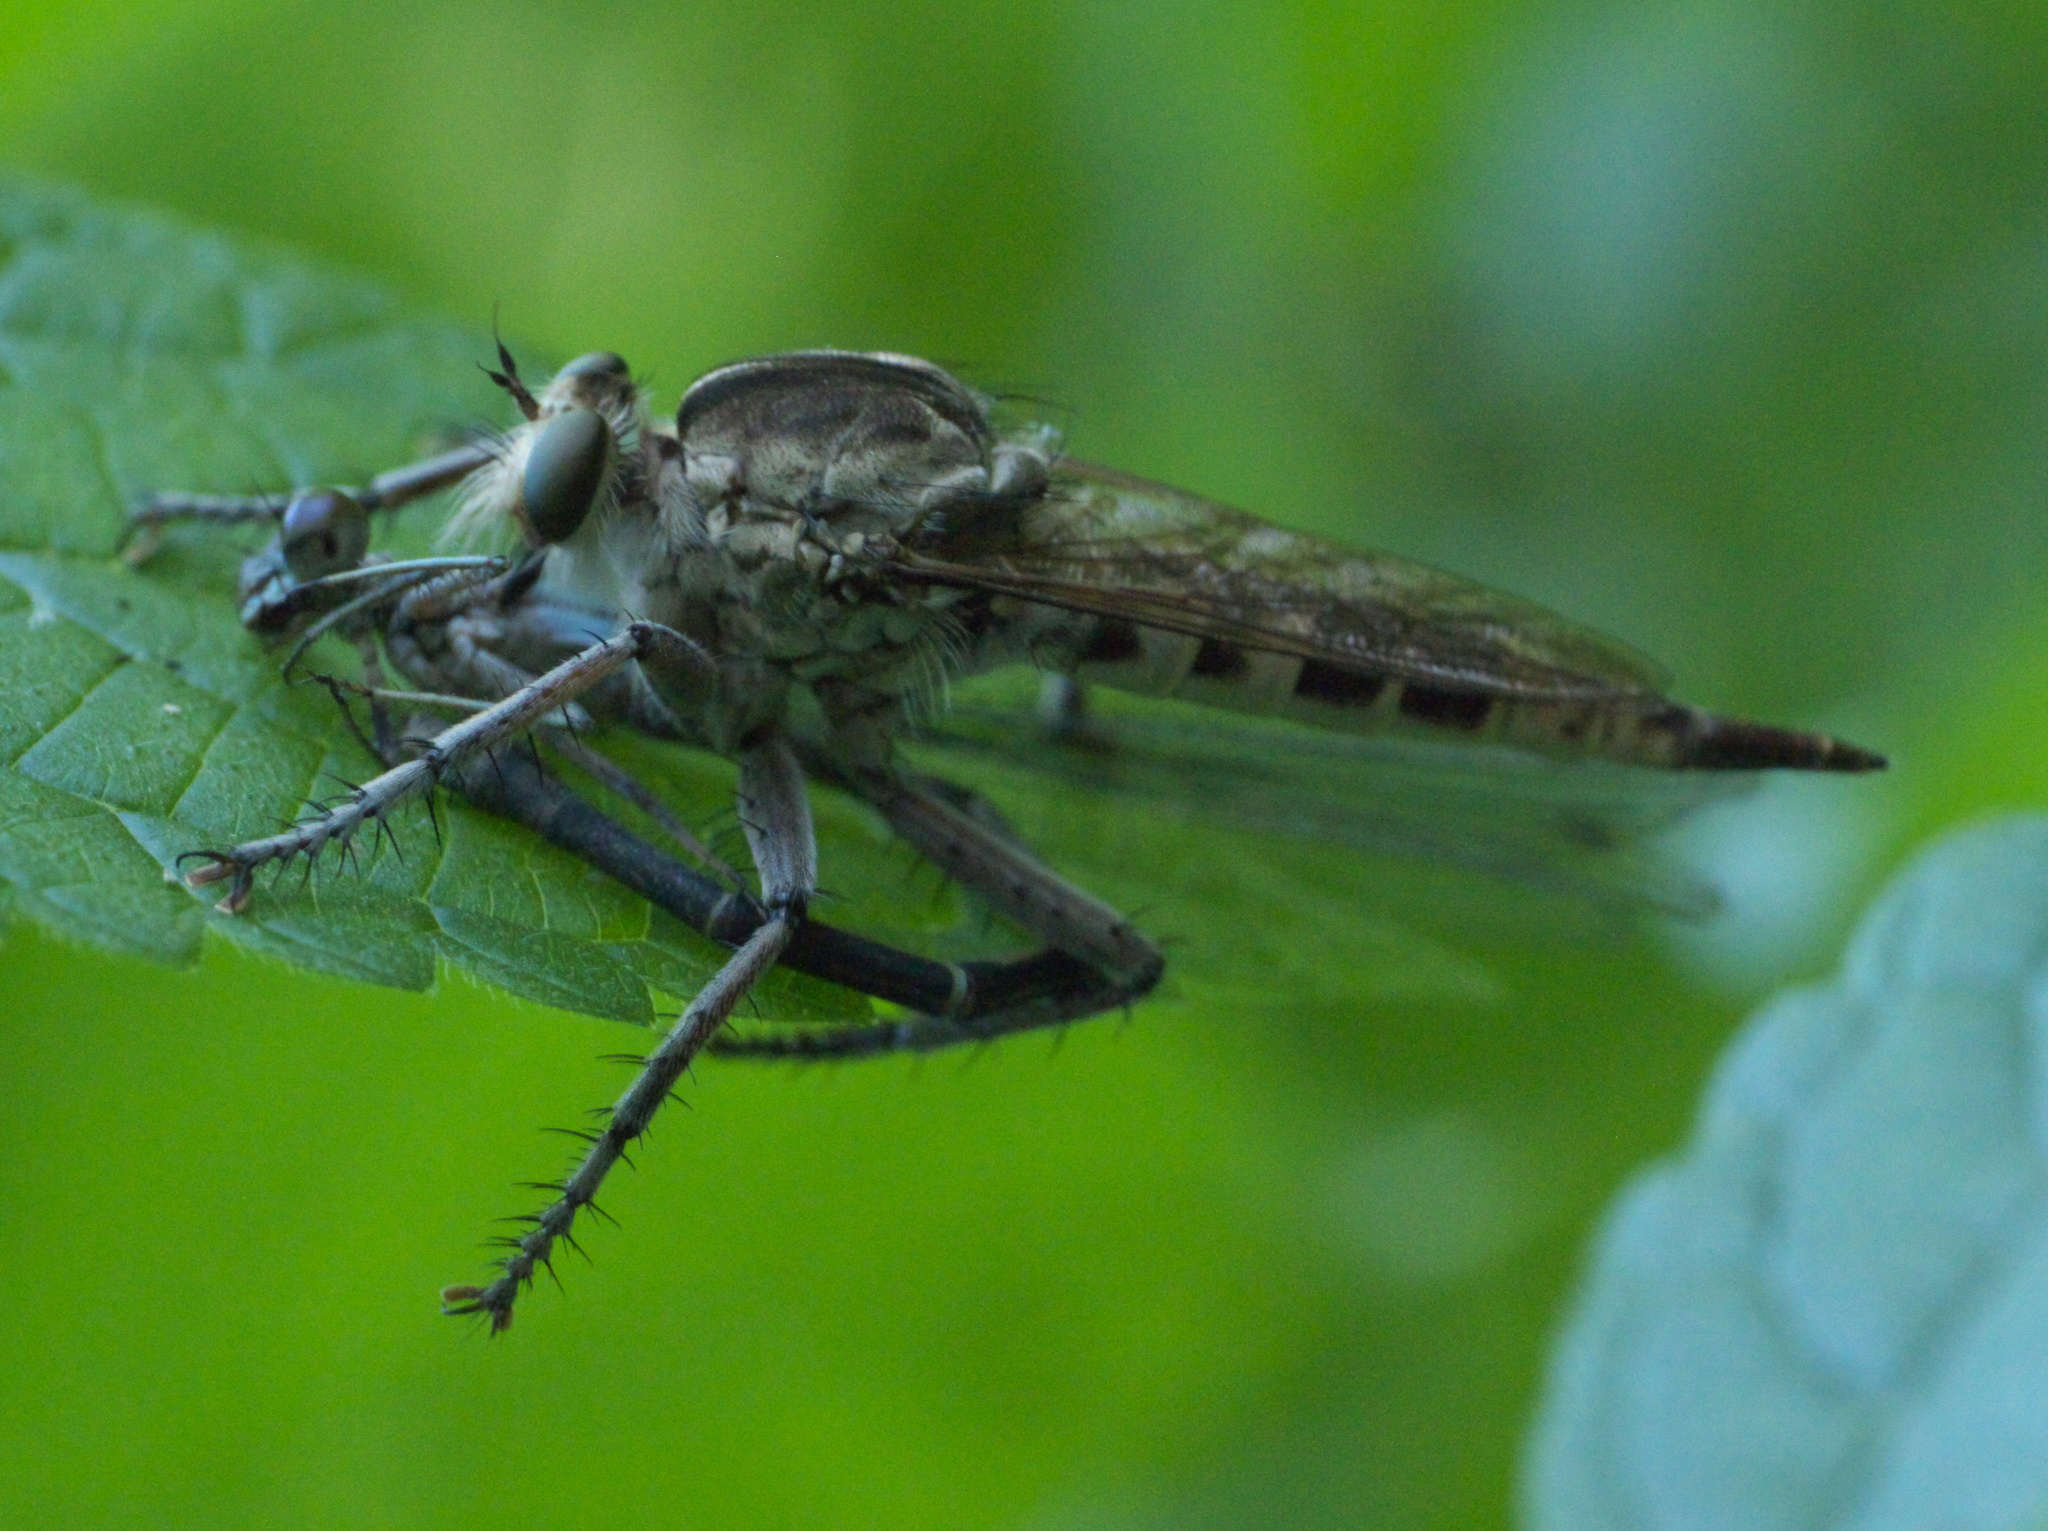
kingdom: Animalia
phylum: Arthropoda
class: Insecta
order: Diptera
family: Asilidae
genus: Triorla
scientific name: Triorla interrupta
